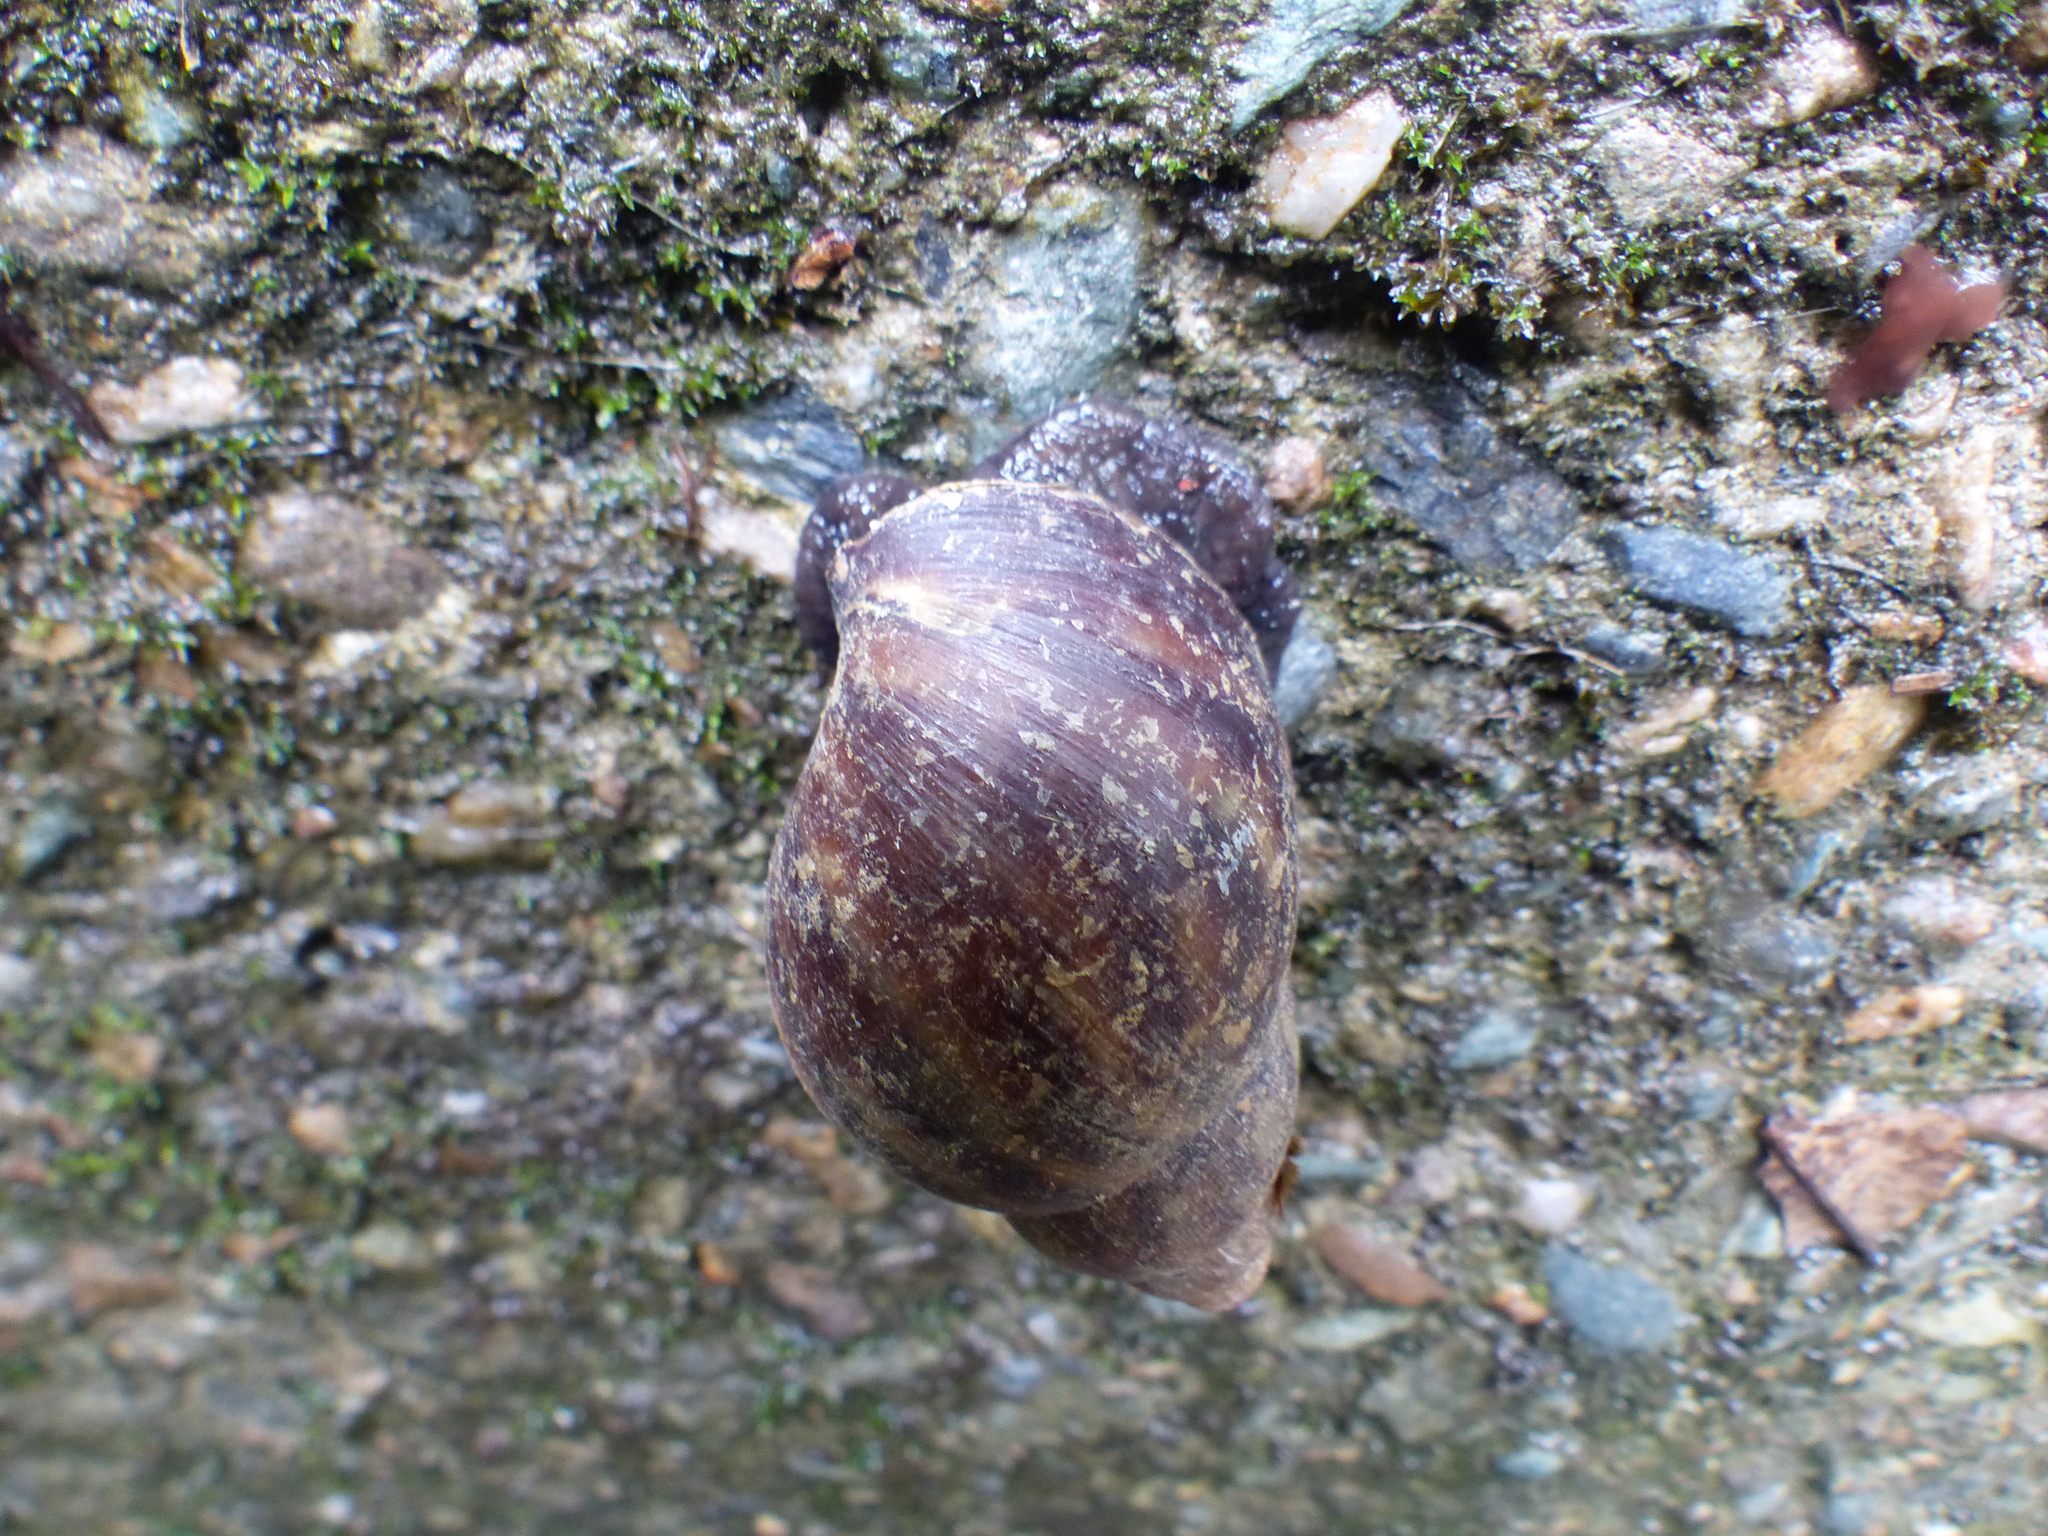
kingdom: Animalia
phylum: Mollusca
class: Gastropoda
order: Stylommatophora
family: Achatinidae
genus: Lissachatina
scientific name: Lissachatina fulica
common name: Giant african snail
